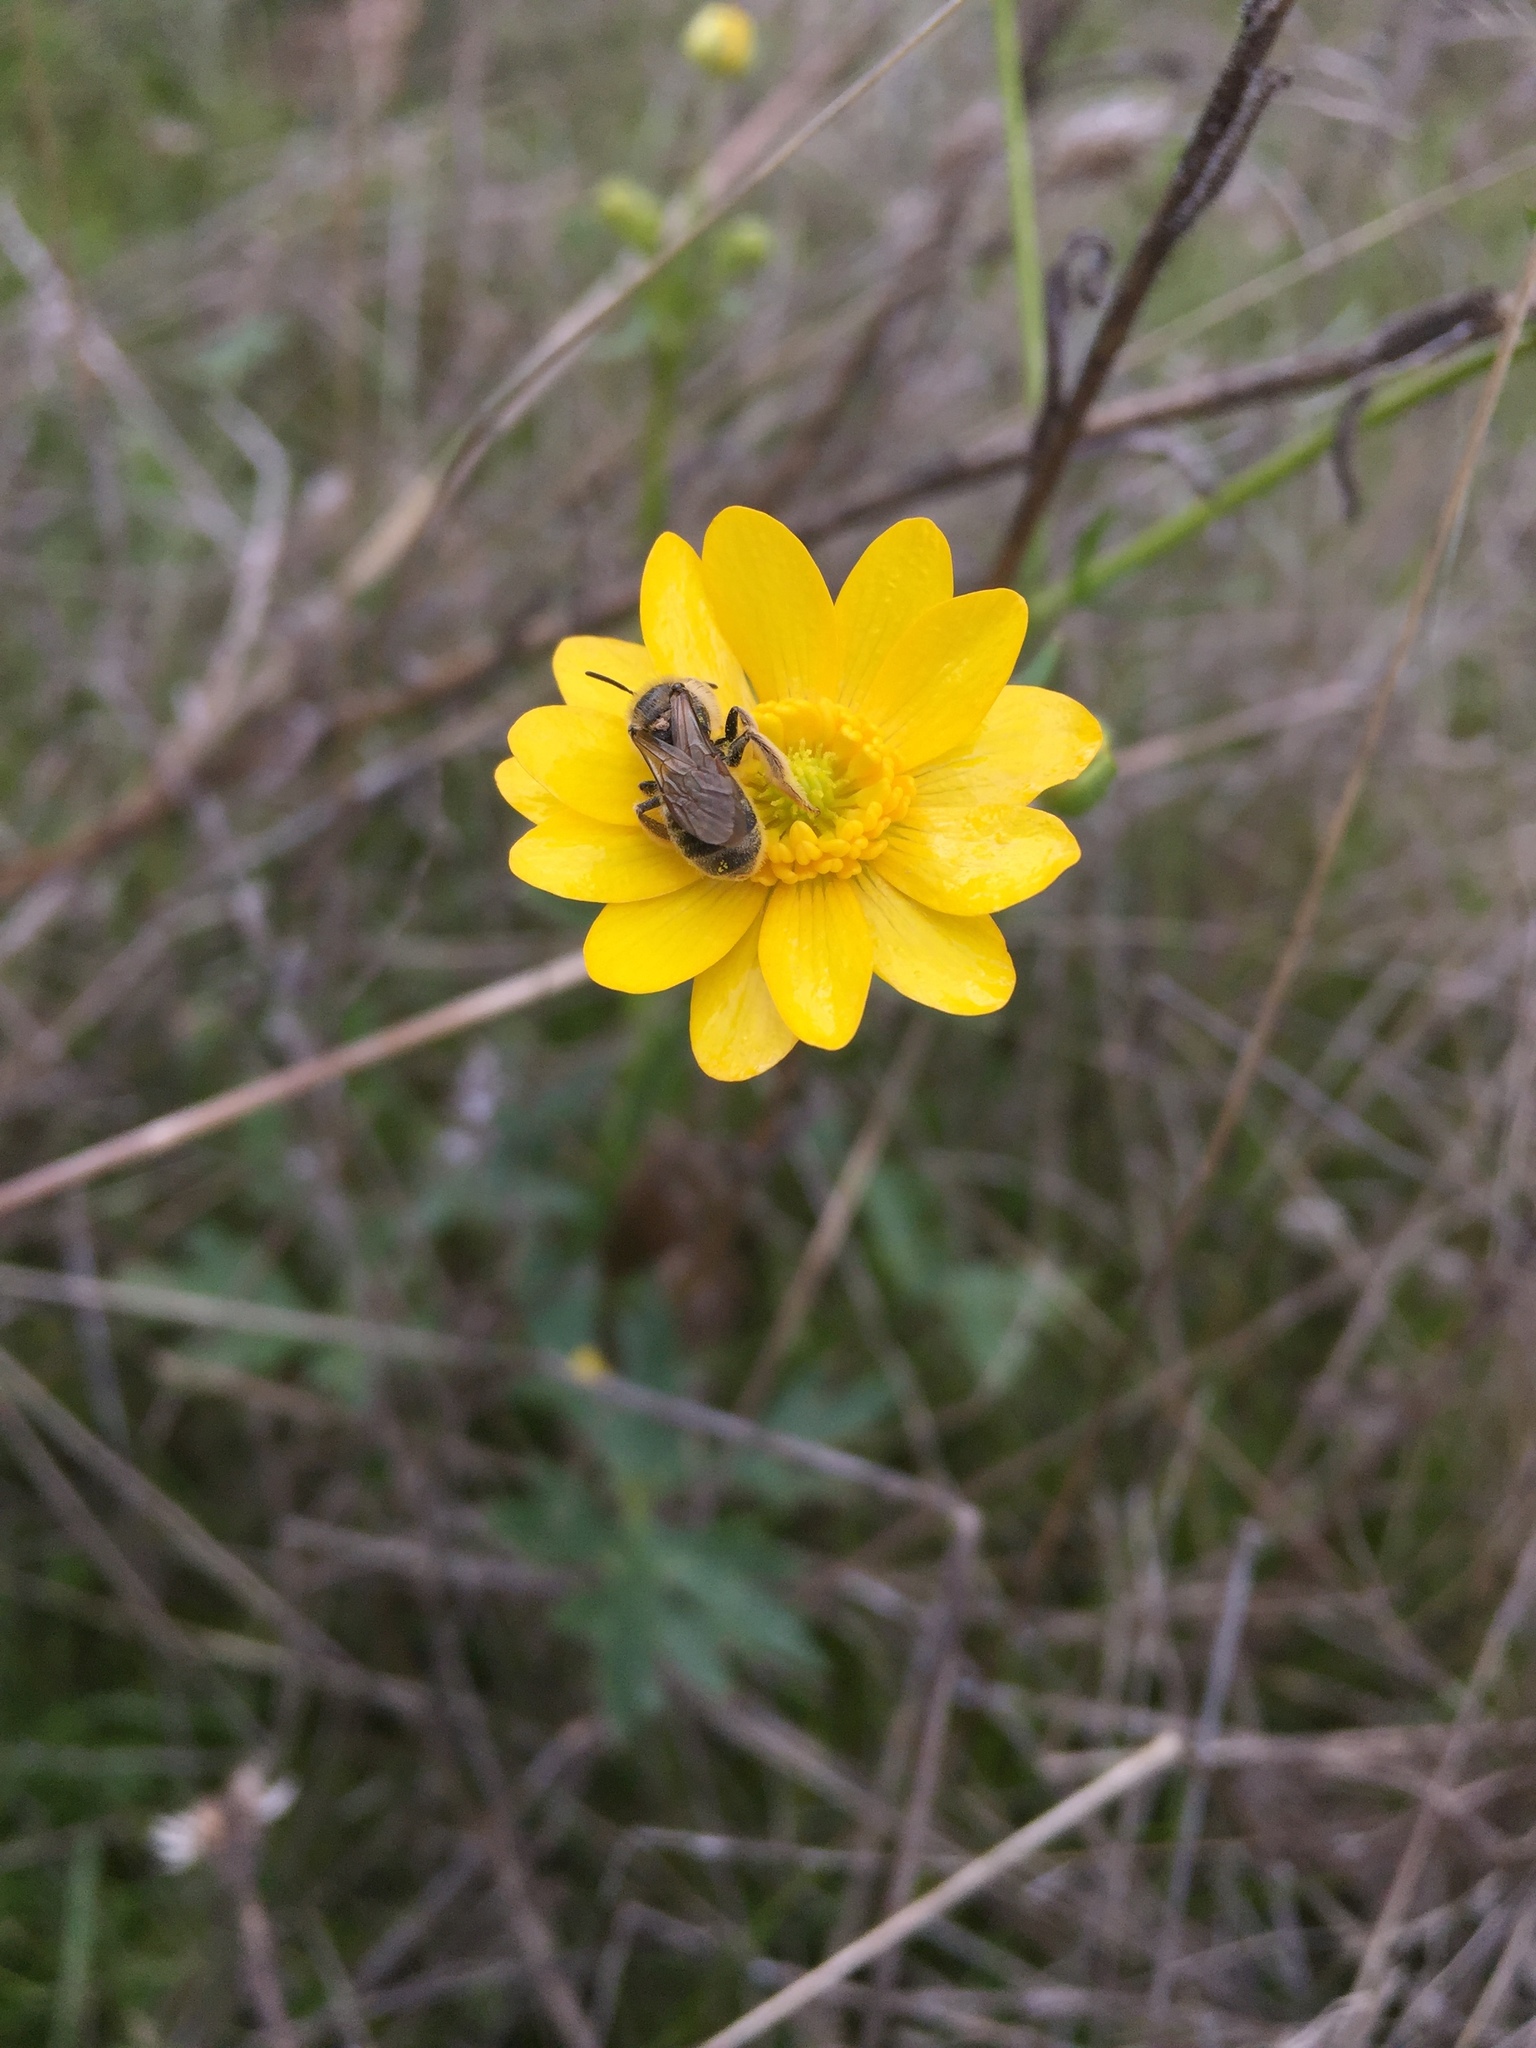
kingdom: Plantae
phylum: Tracheophyta
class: Magnoliopsida
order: Ranunculales
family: Ranunculaceae
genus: Ranunculus
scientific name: Ranunculus californicus
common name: California buttercup
